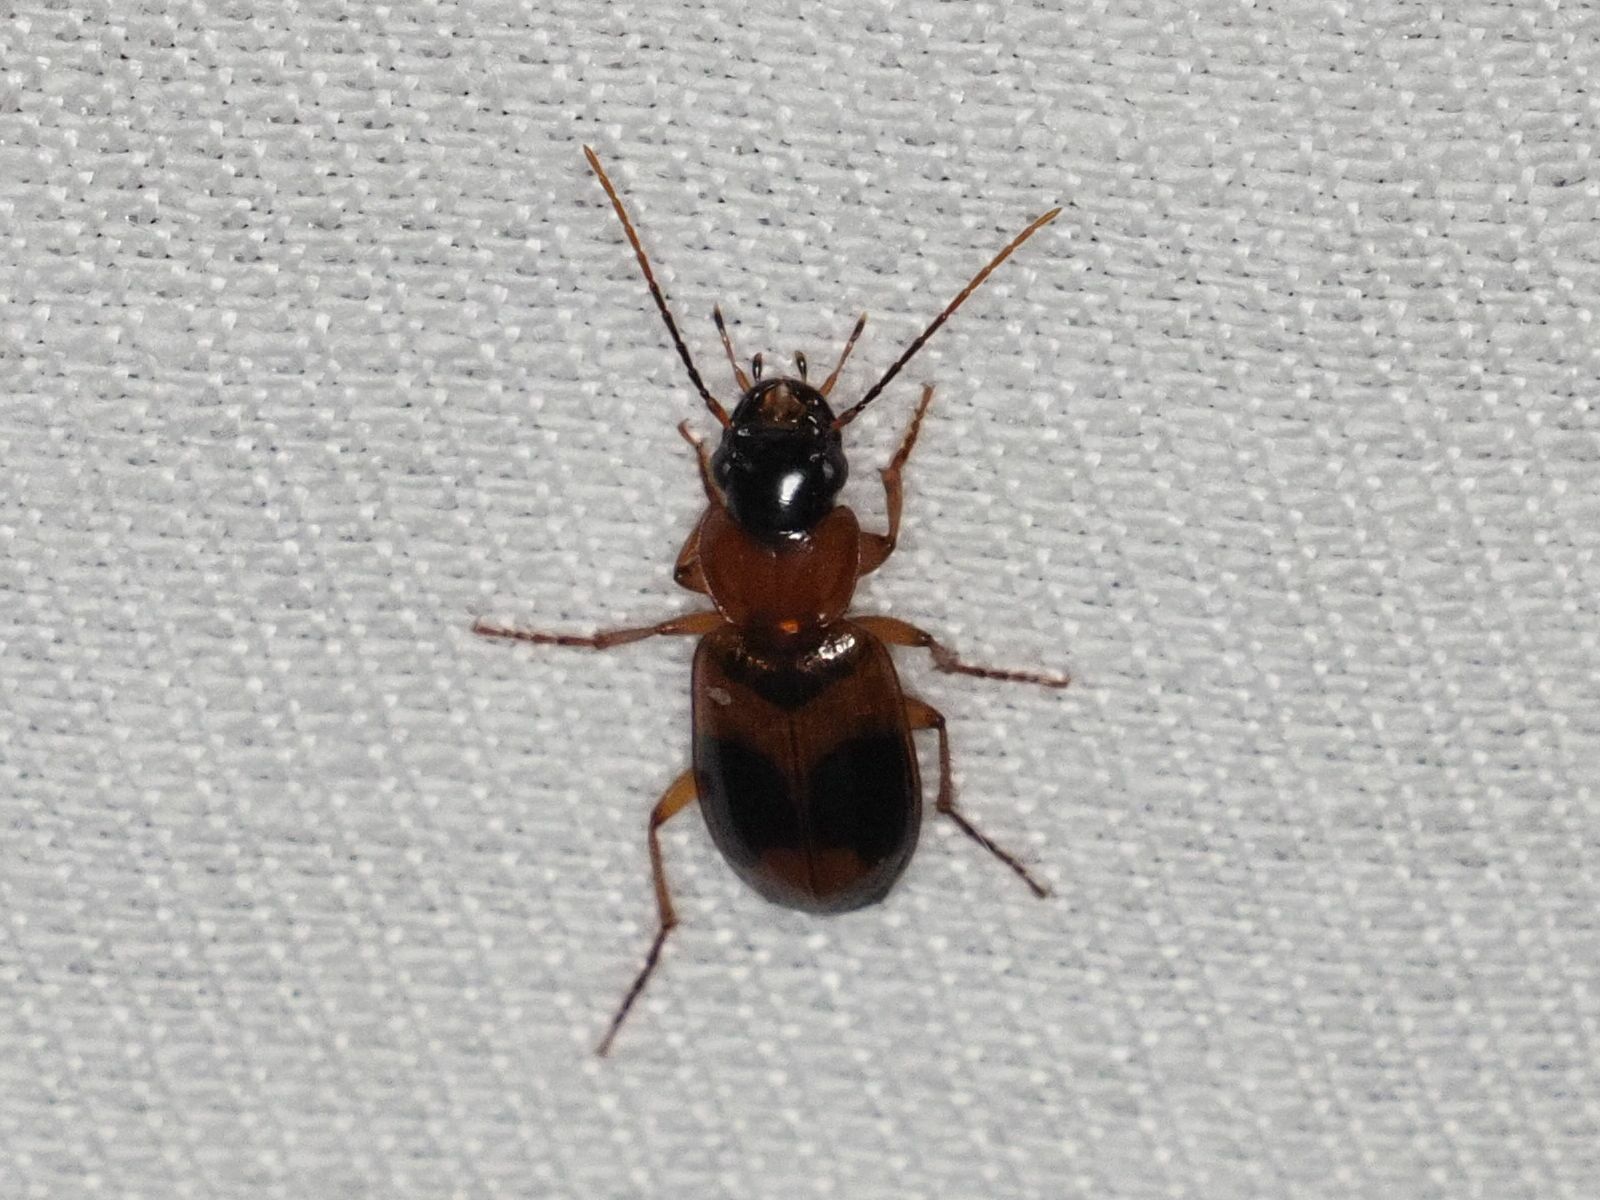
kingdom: Animalia
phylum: Arthropoda
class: Insecta
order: Coleoptera
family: Carabidae
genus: Badister
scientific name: Badister unipustulatus
